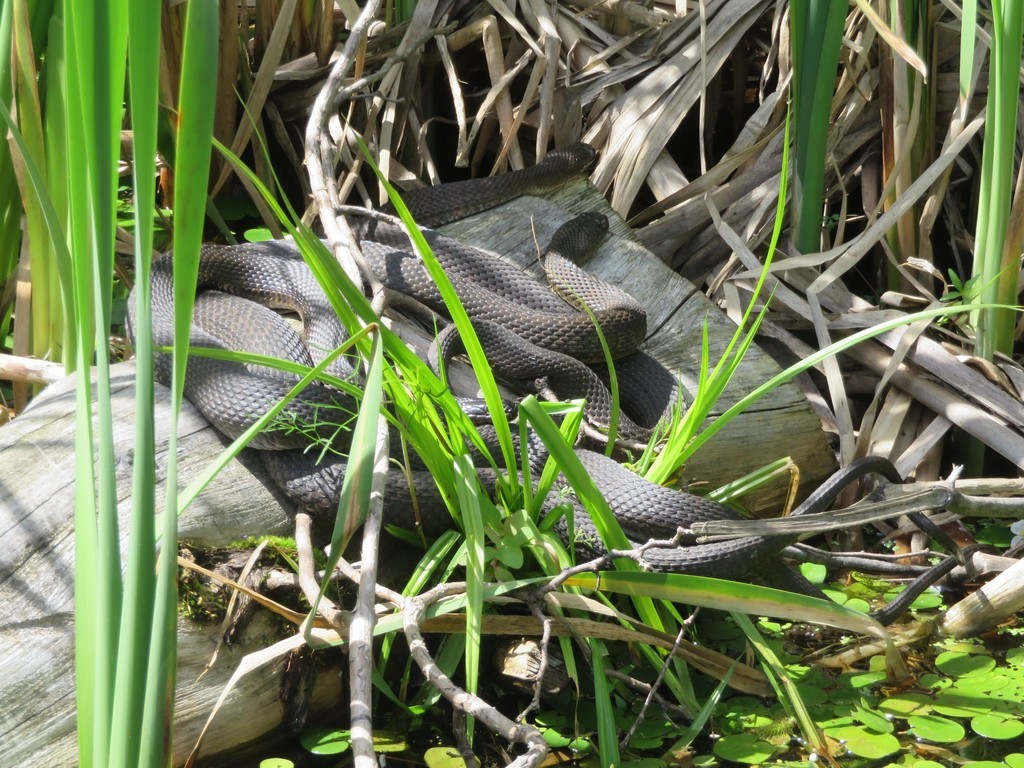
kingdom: Animalia
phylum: Chordata
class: Squamata
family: Colubridae
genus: Nerodia
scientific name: Nerodia sipedon
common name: Northern water snake
